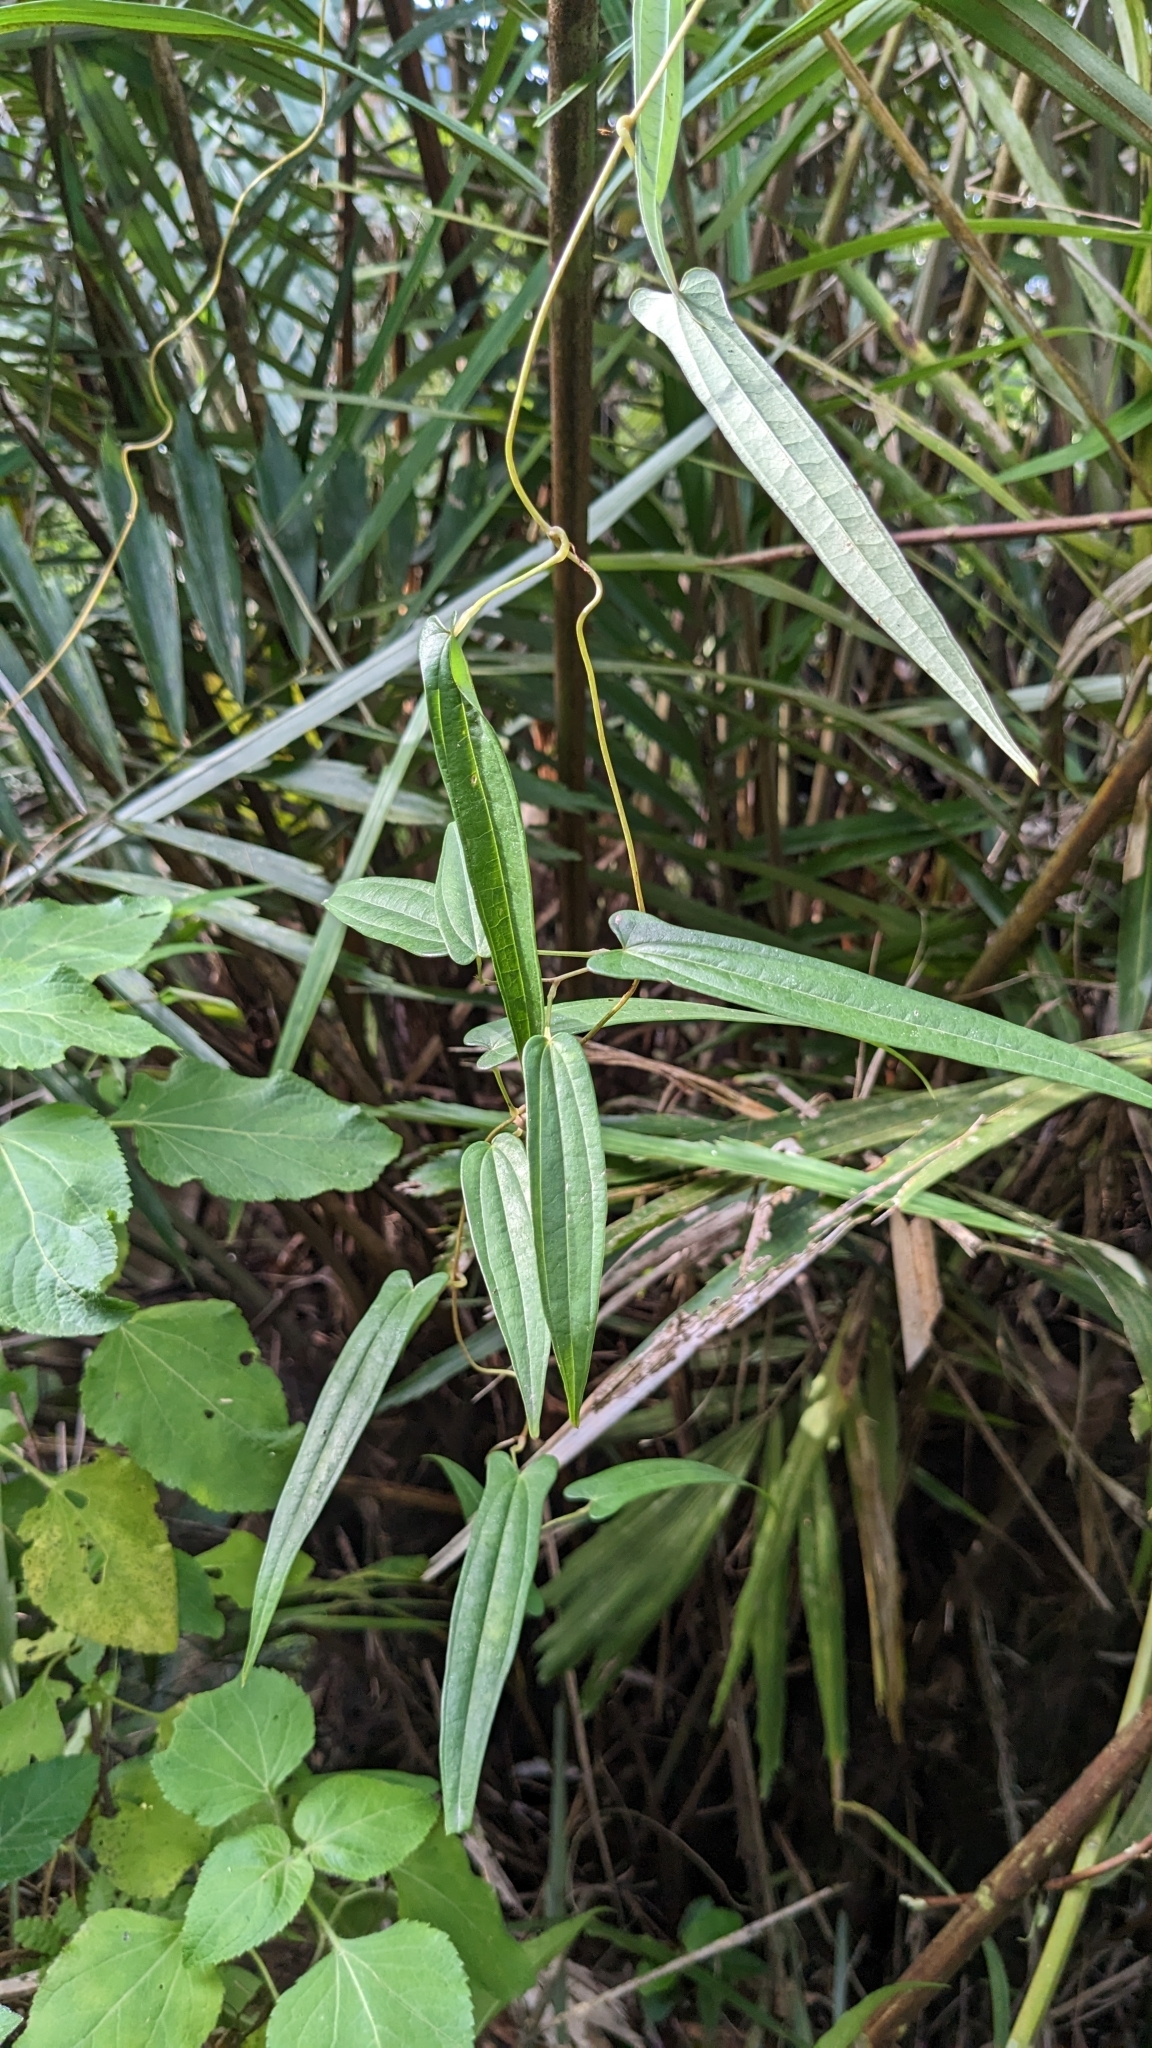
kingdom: Plantae
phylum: Tracheophyta
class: Liliopsida
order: Dioscoreales
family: Dioscoreaceae
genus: Dioscorea
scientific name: Dioscorea cirrhosa
